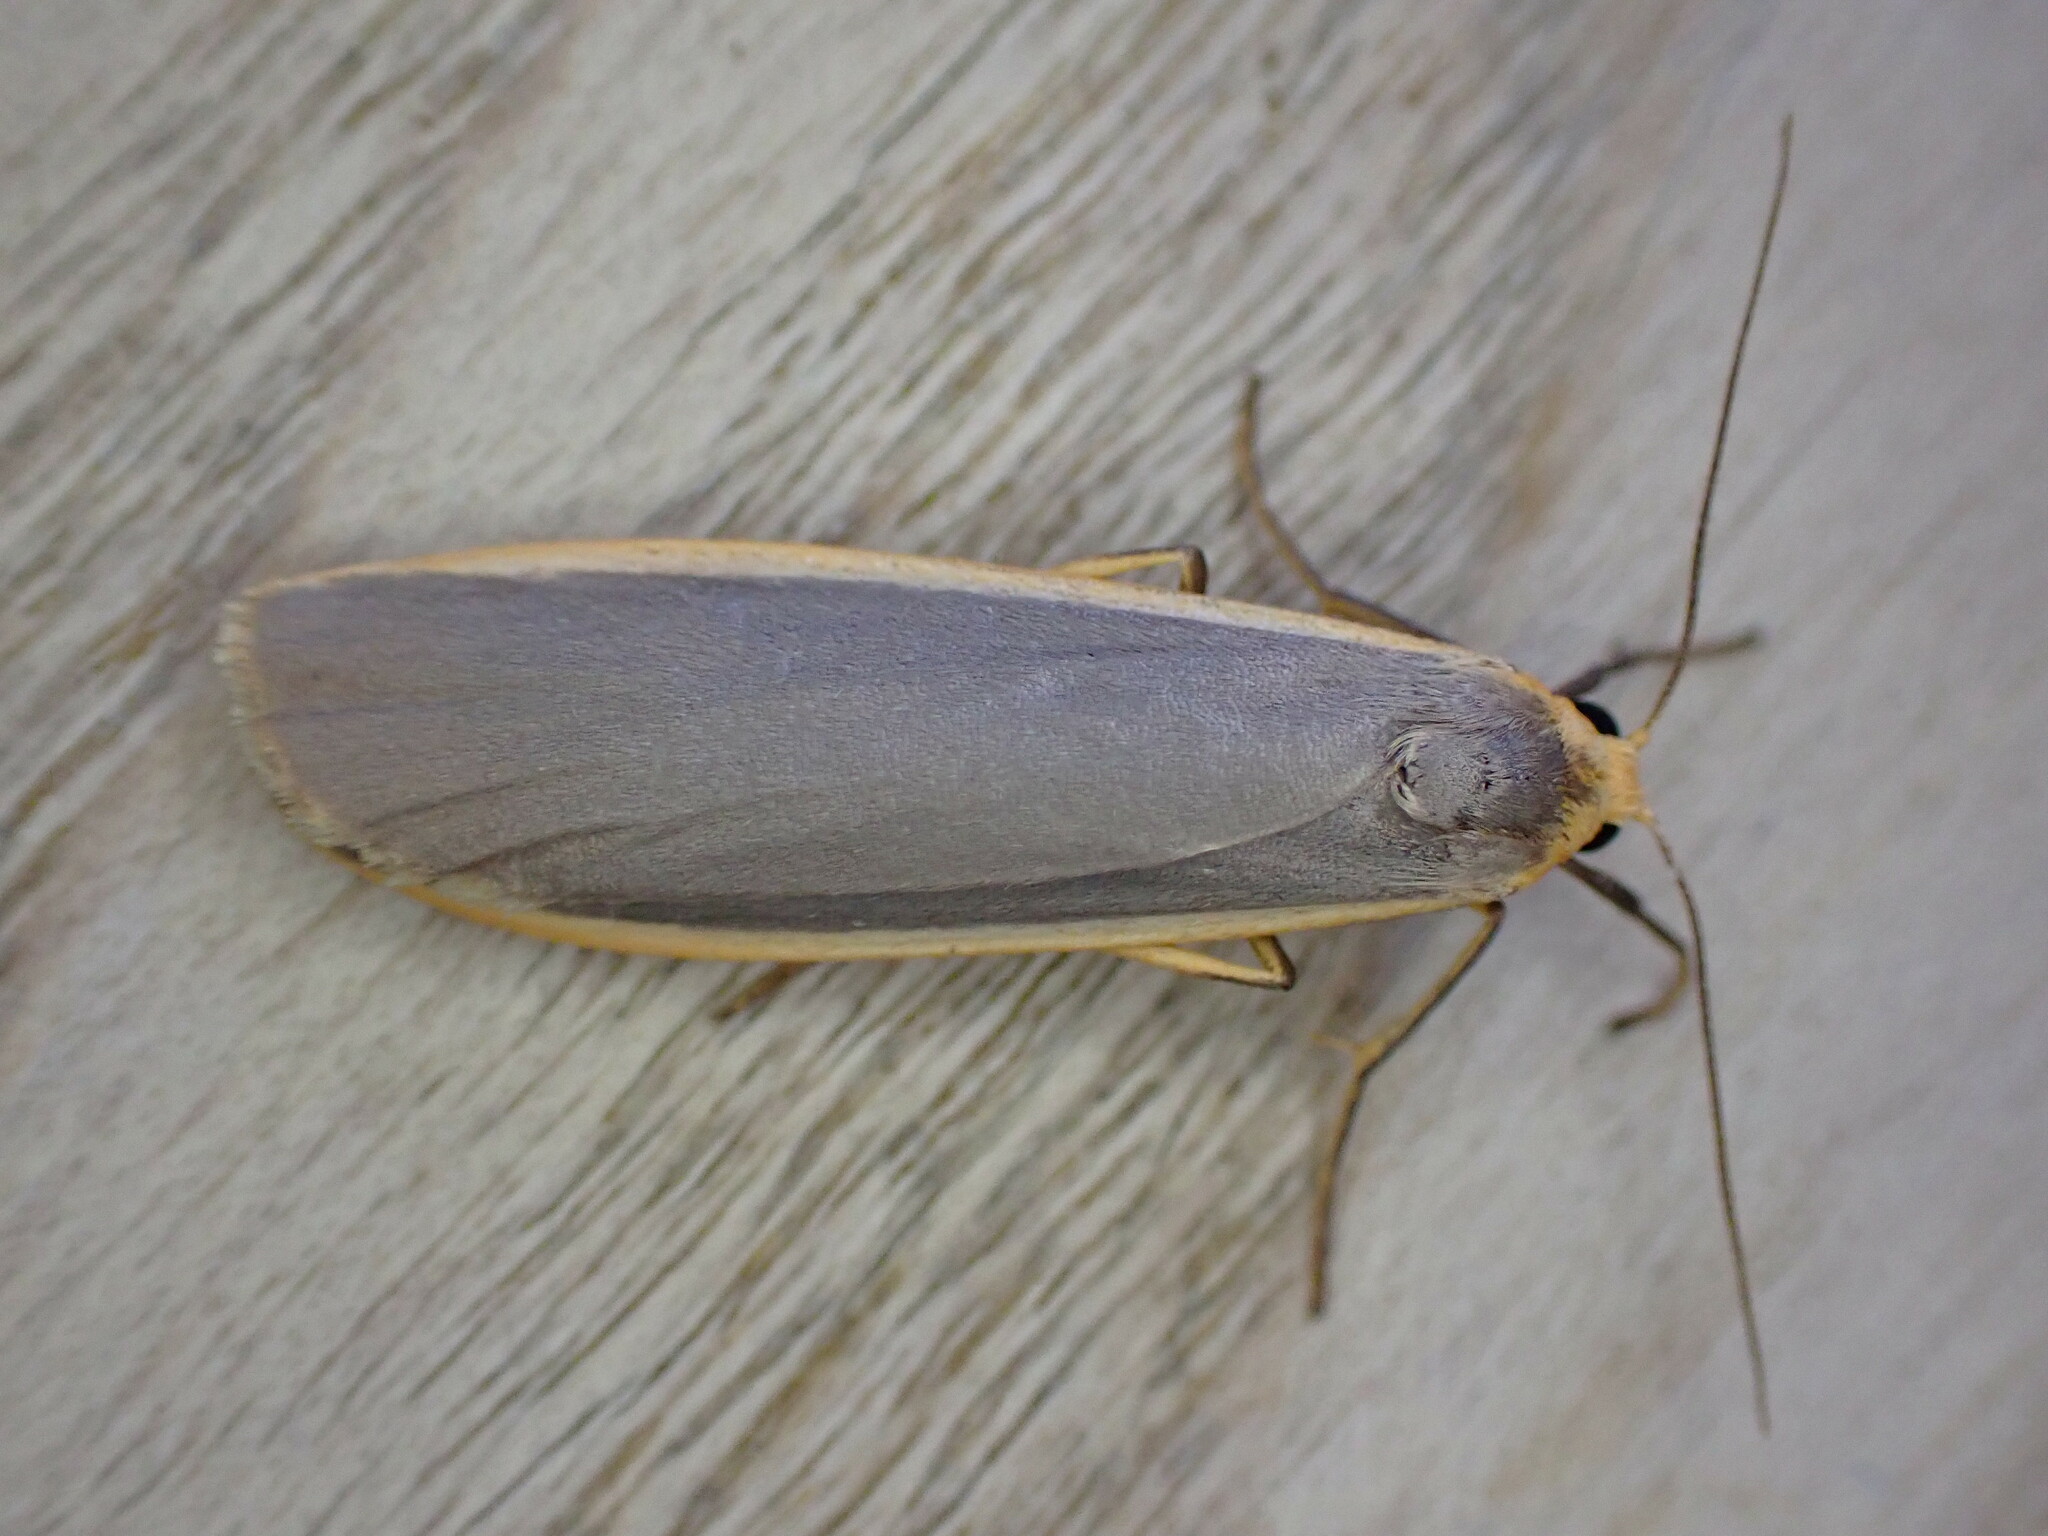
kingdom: Animalia
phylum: Arthropoda
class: Insecta
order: Lepidoptera
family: Erebidae
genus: Nyea
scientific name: Nyea lurideola
